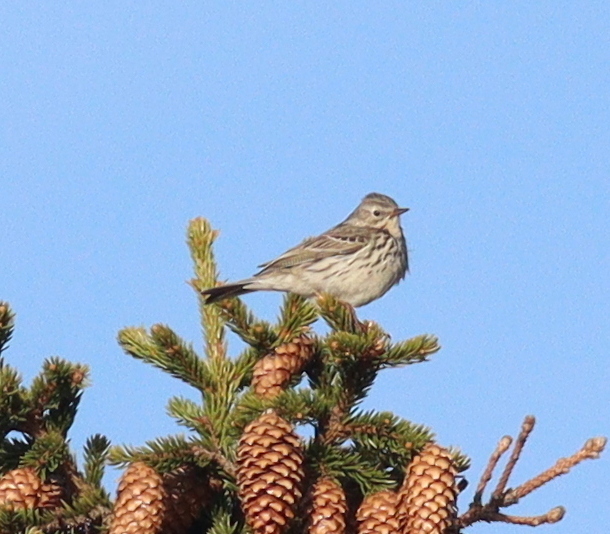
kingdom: Animalia
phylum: Chordata
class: Aves
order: Passeriformes
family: Motacillidae
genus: Anthus
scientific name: Anthus pratensis
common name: Meadow pipit
